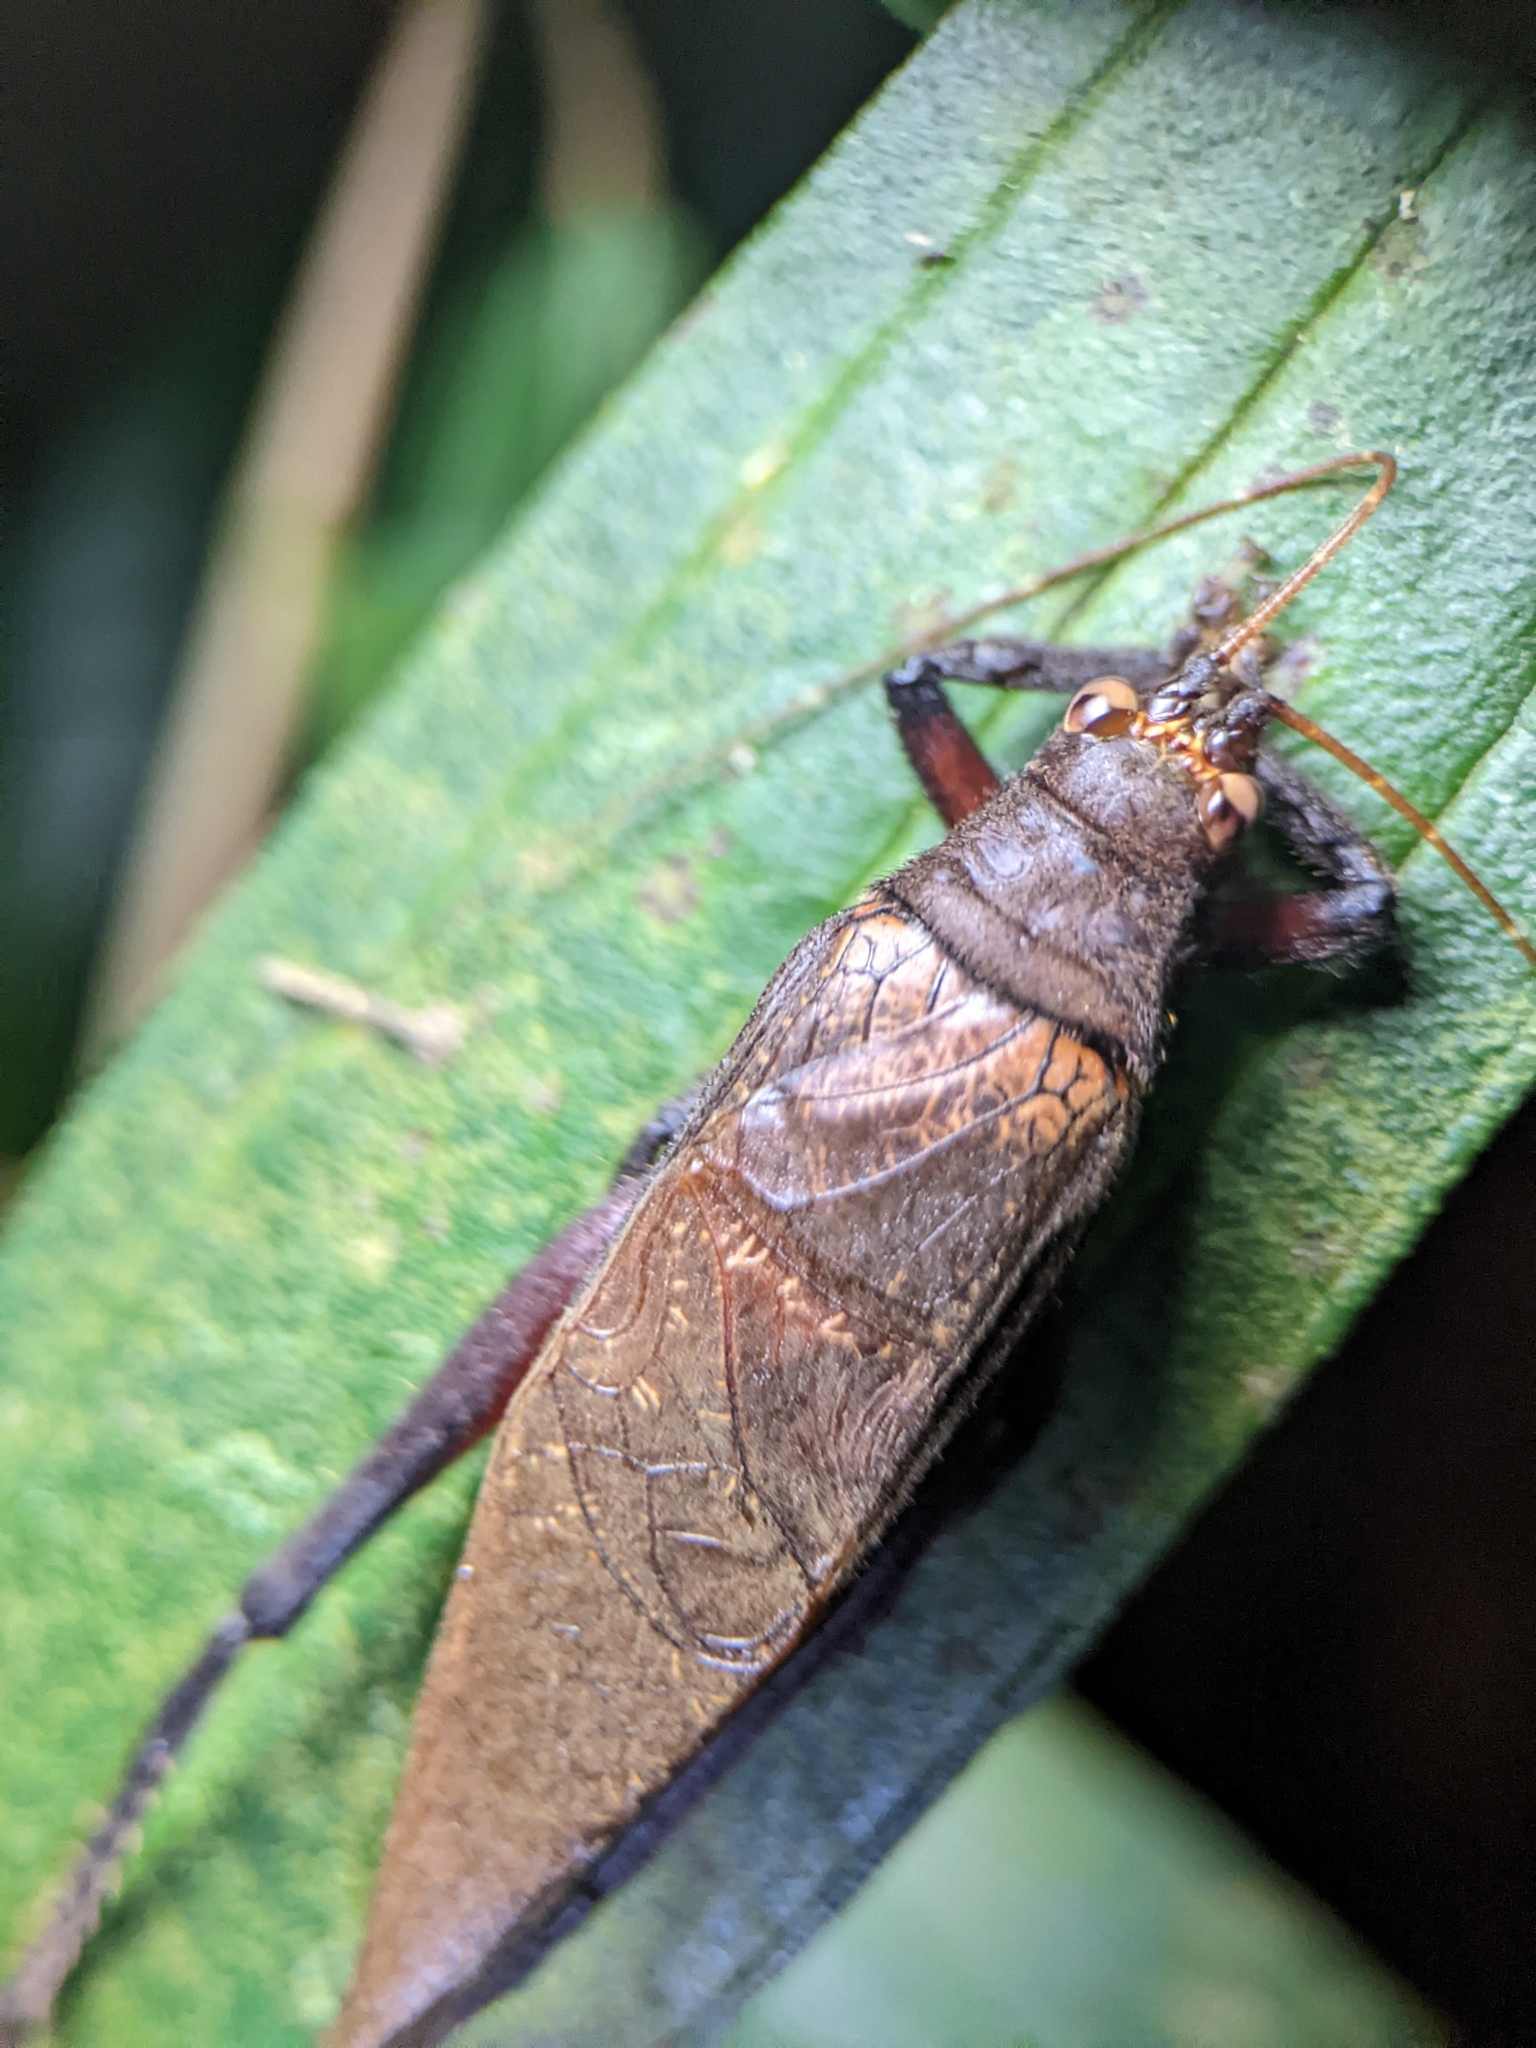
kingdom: Animalia
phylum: Arthropoda
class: Insecta
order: Orthoptera
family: Gryllidae
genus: Sonotrella
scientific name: Sonotrella typica
